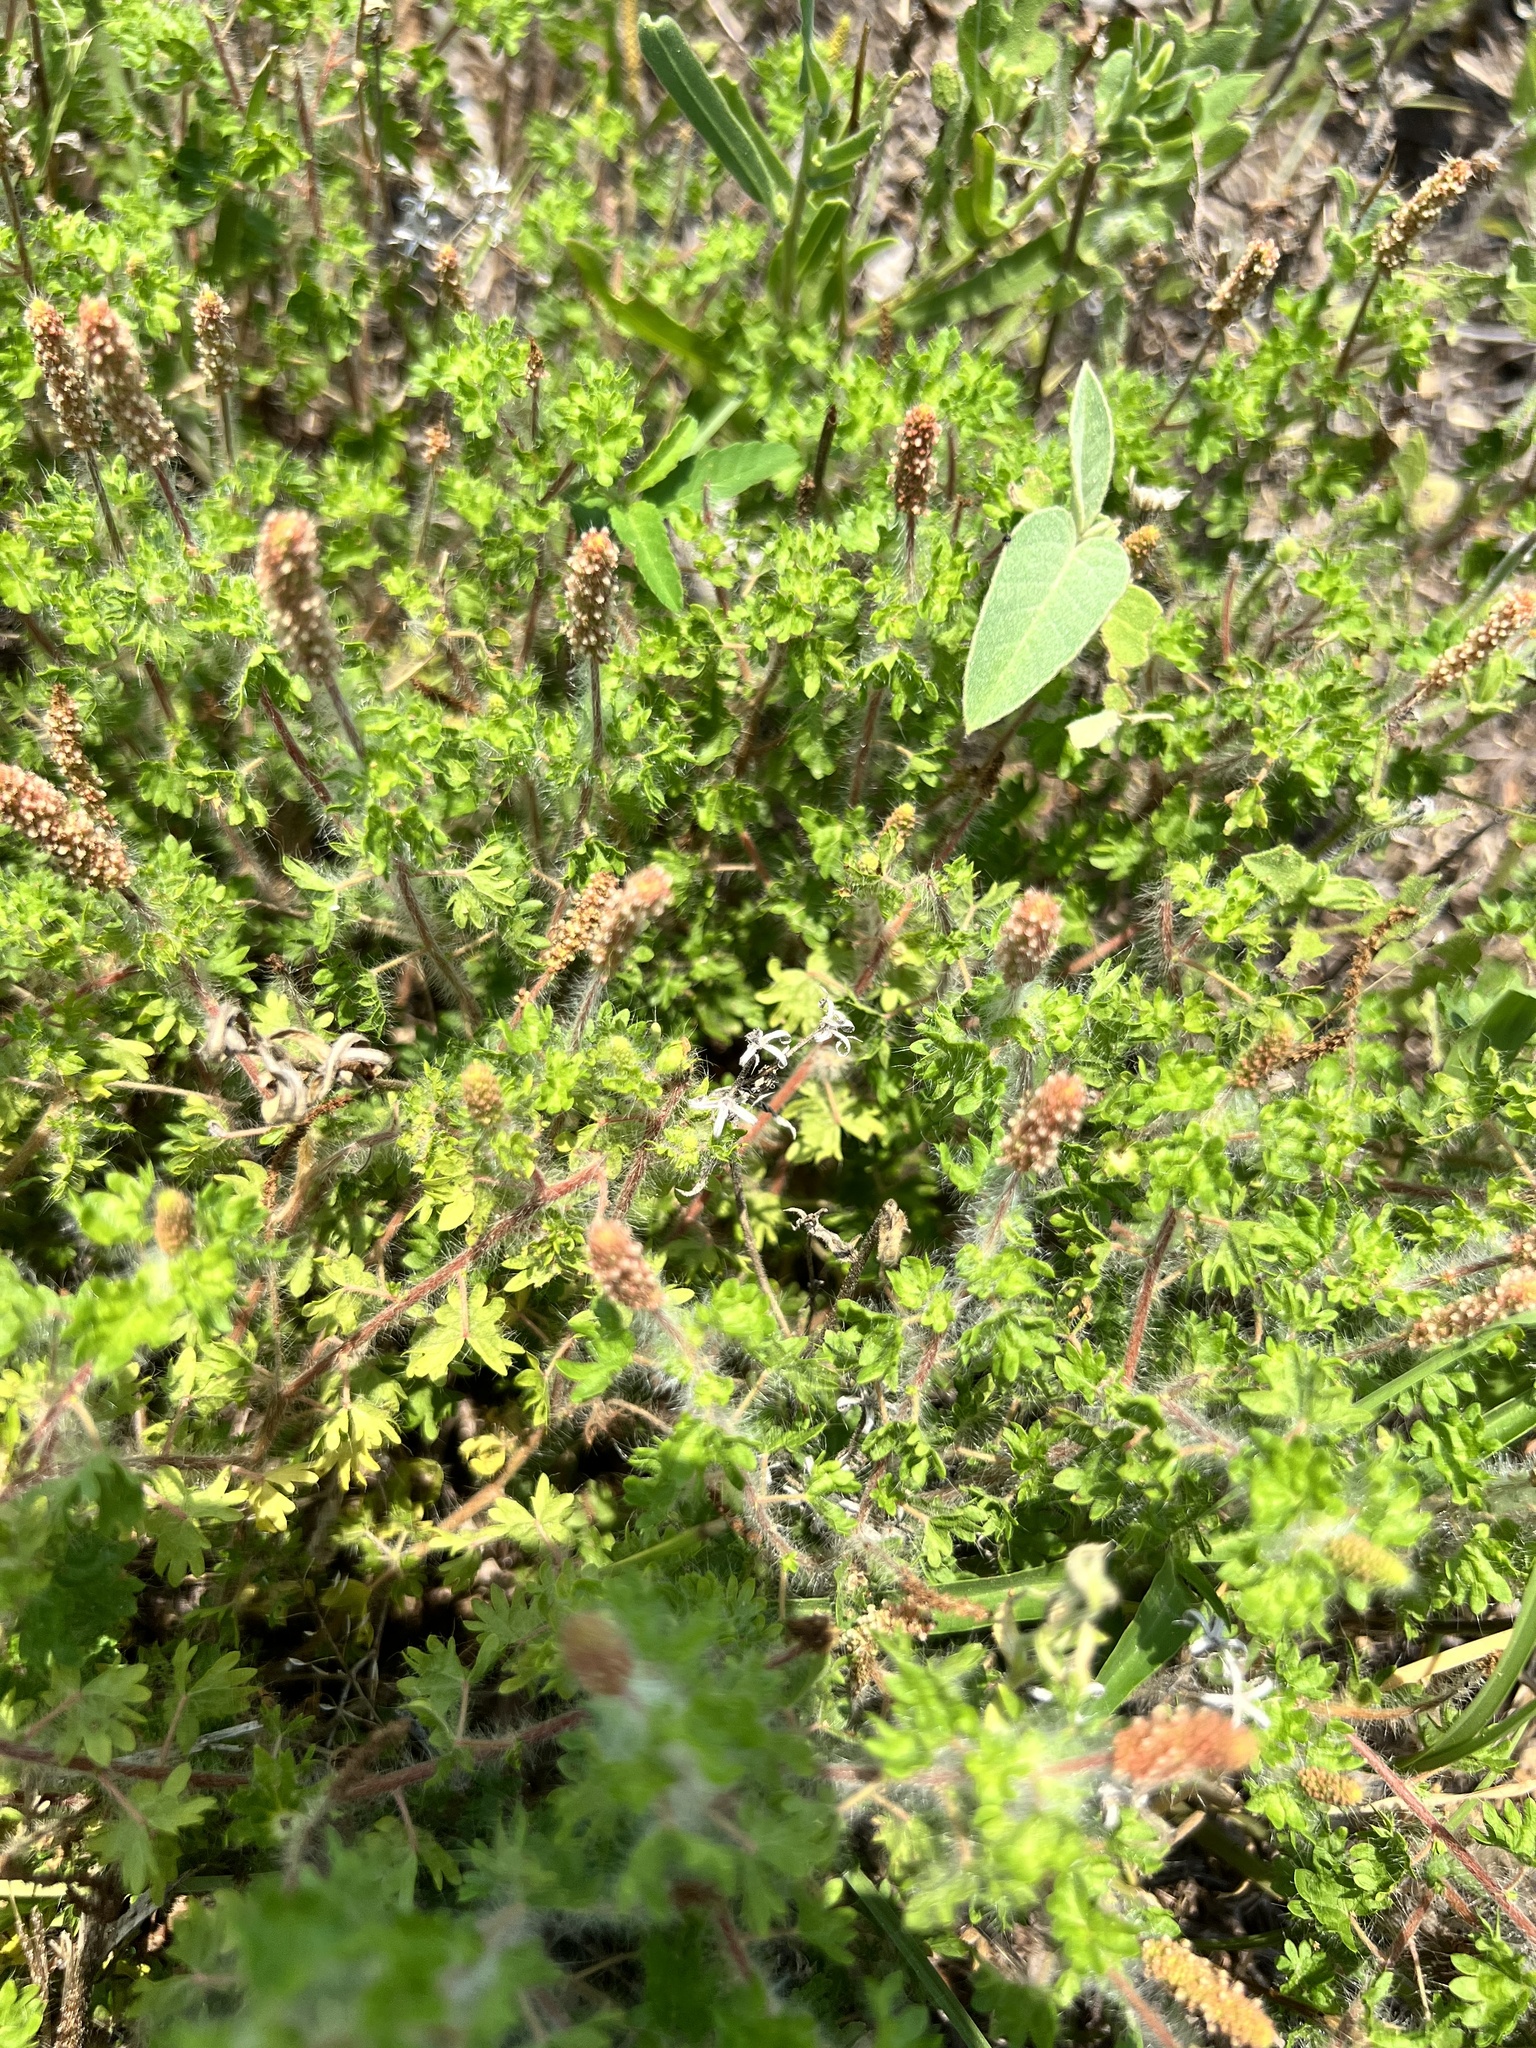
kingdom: Plantae
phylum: Tracheophyta
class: Magnoliopsida
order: Malpighiales
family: Euphorbiaceae
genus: Acalypha
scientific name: Acalypha radians
